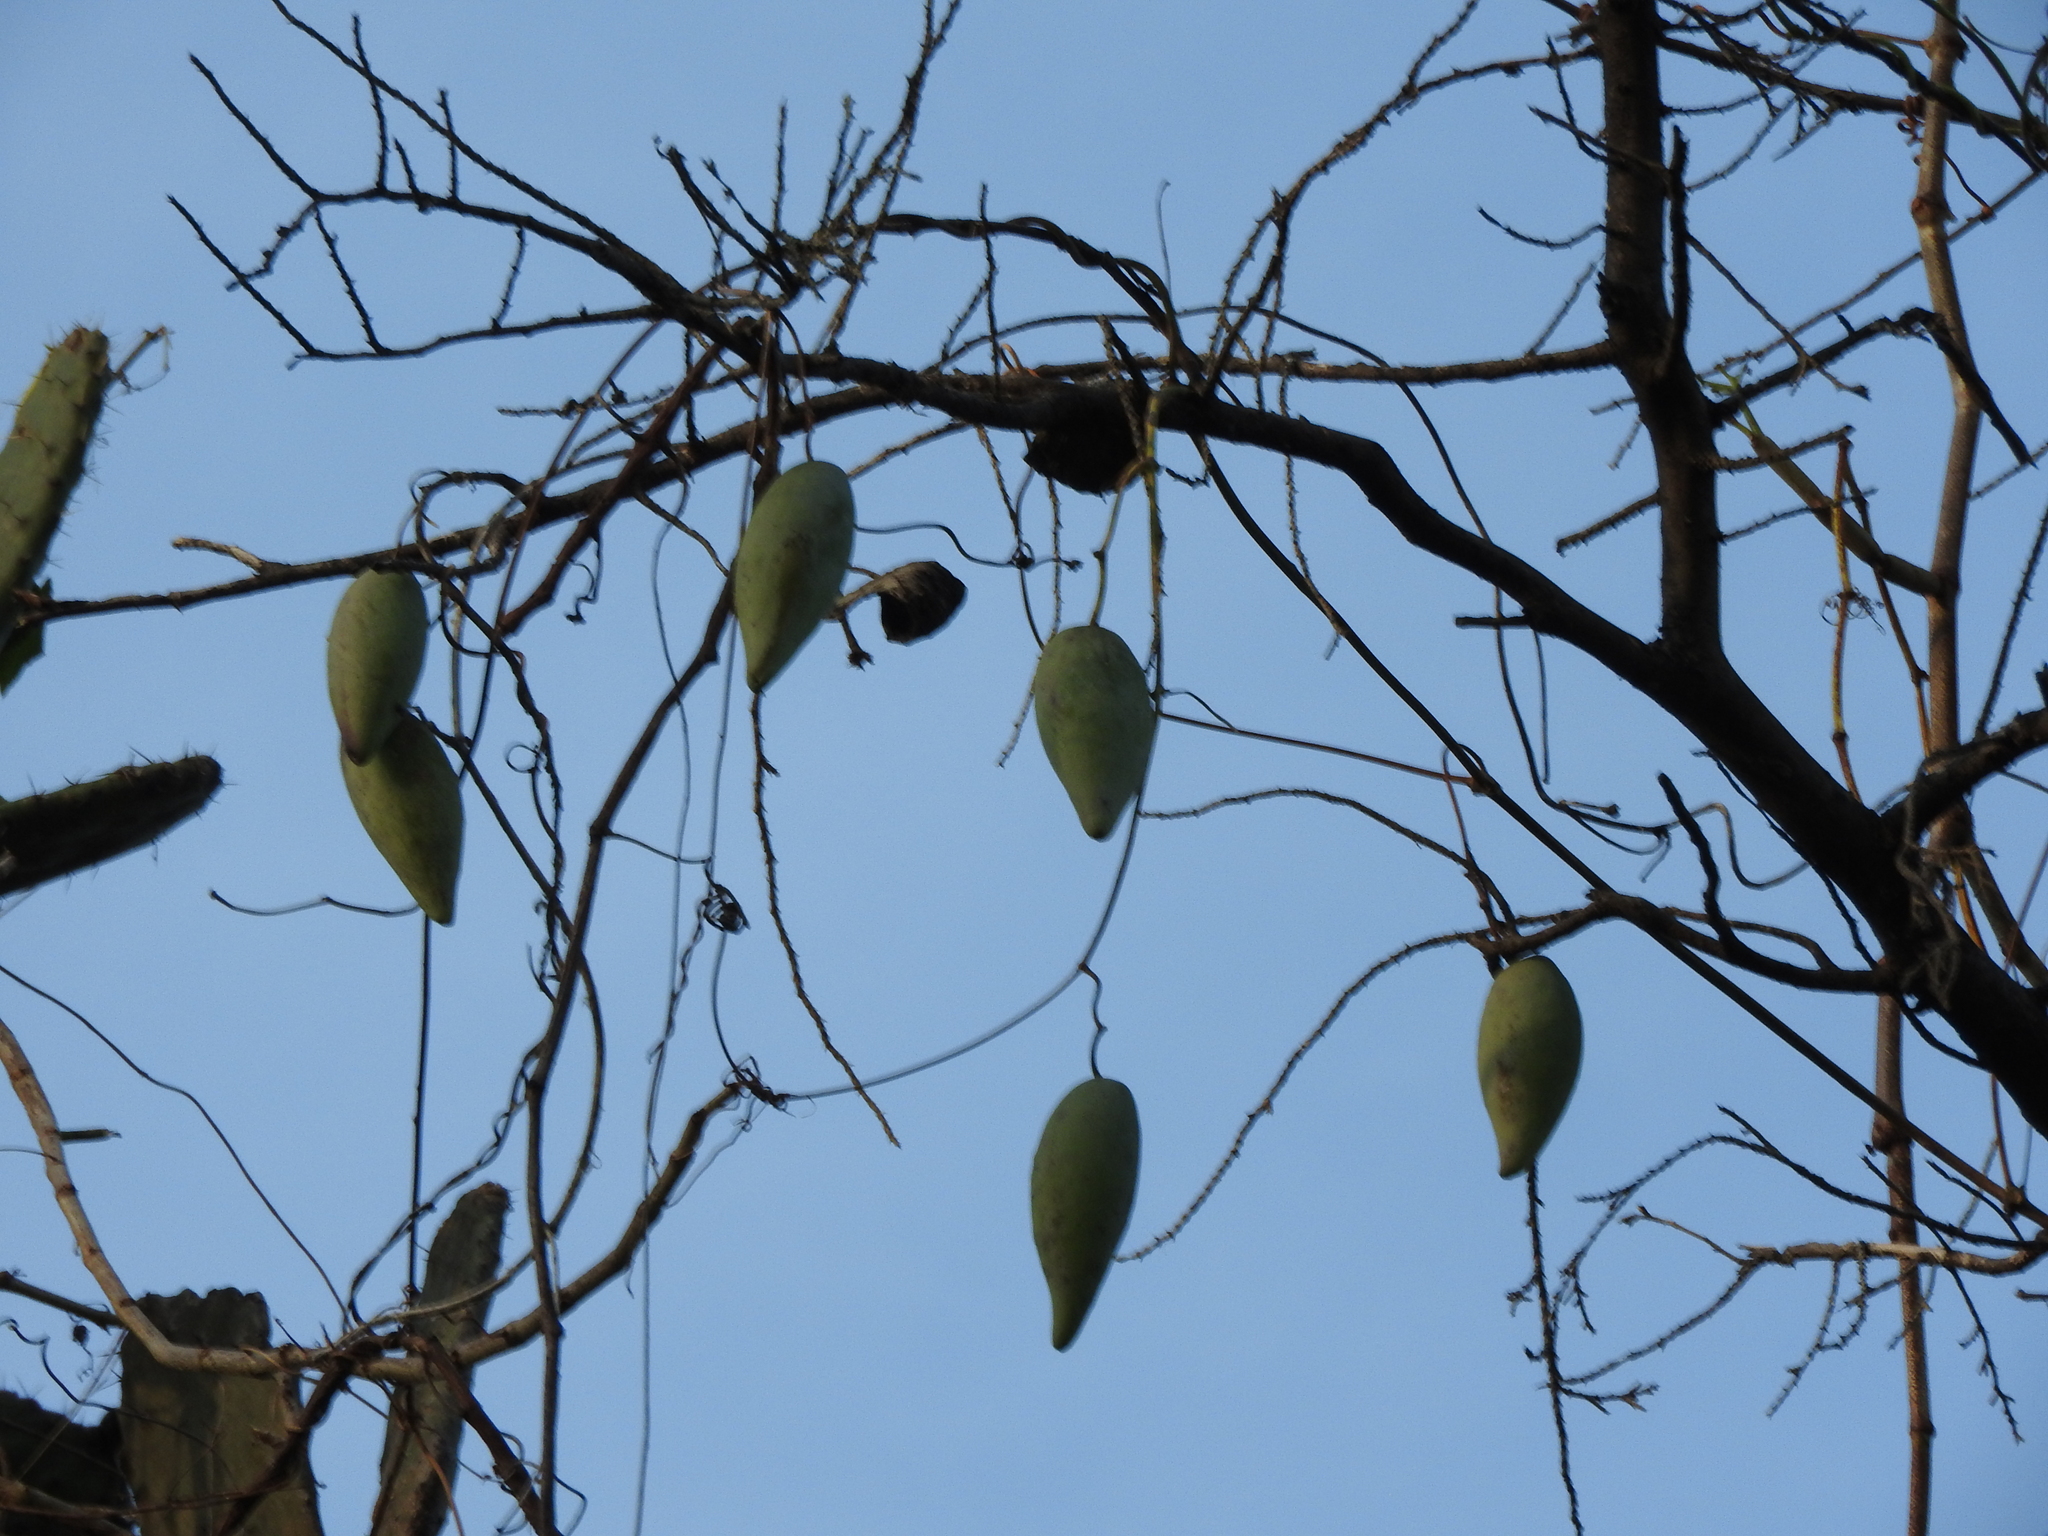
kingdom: Plantae
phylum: Tracheophyta
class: Magnoliopsida
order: Gentianales
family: Apocynaceae
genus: Funastrum
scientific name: Funastrum pannosum
